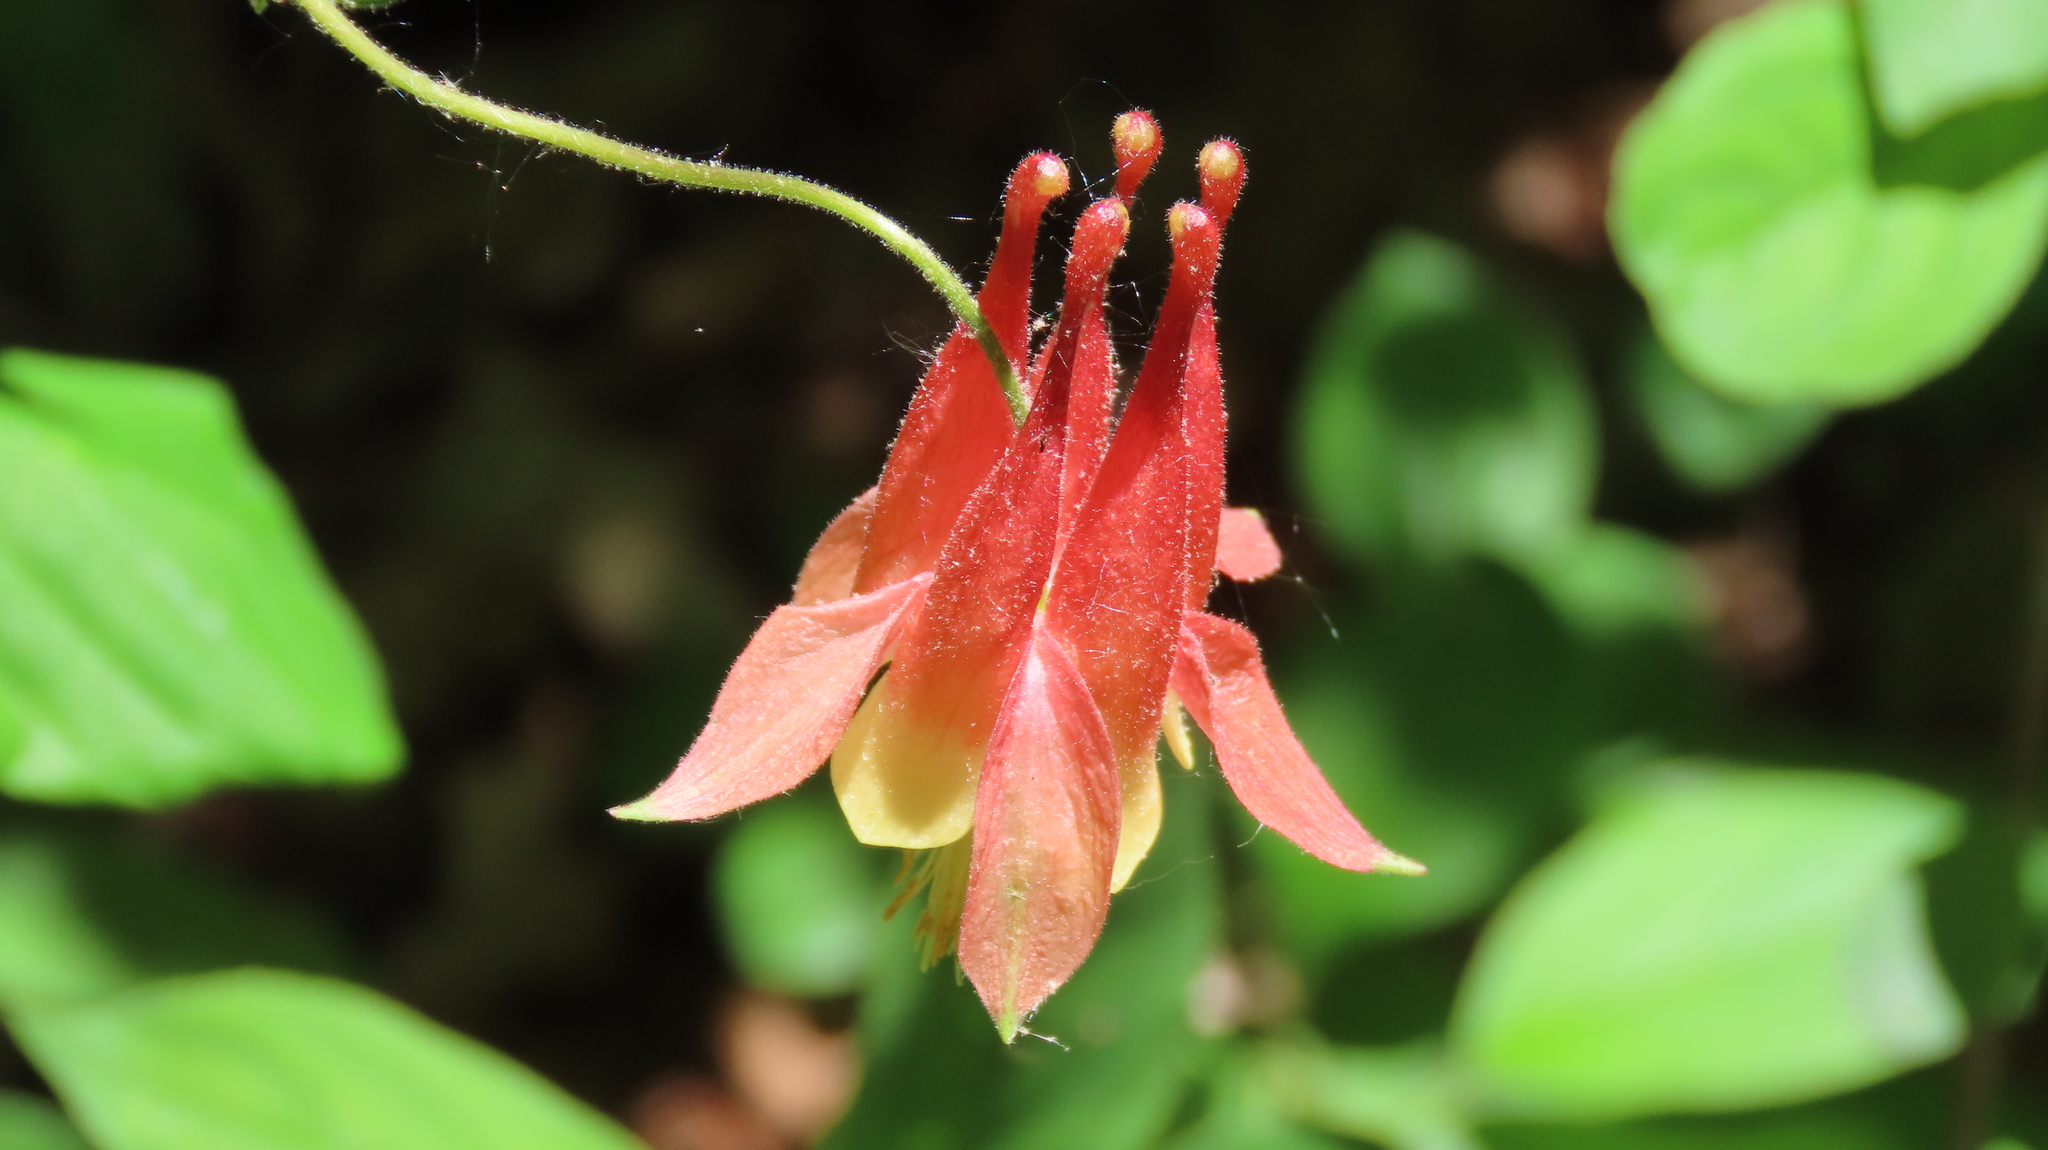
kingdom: Plantae
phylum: Tracheophyta
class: Magnoliopsida
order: Ranunculales
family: Ranunculaceae
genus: Aquilegia
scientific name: Aquilegia canadensis
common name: American columbine
